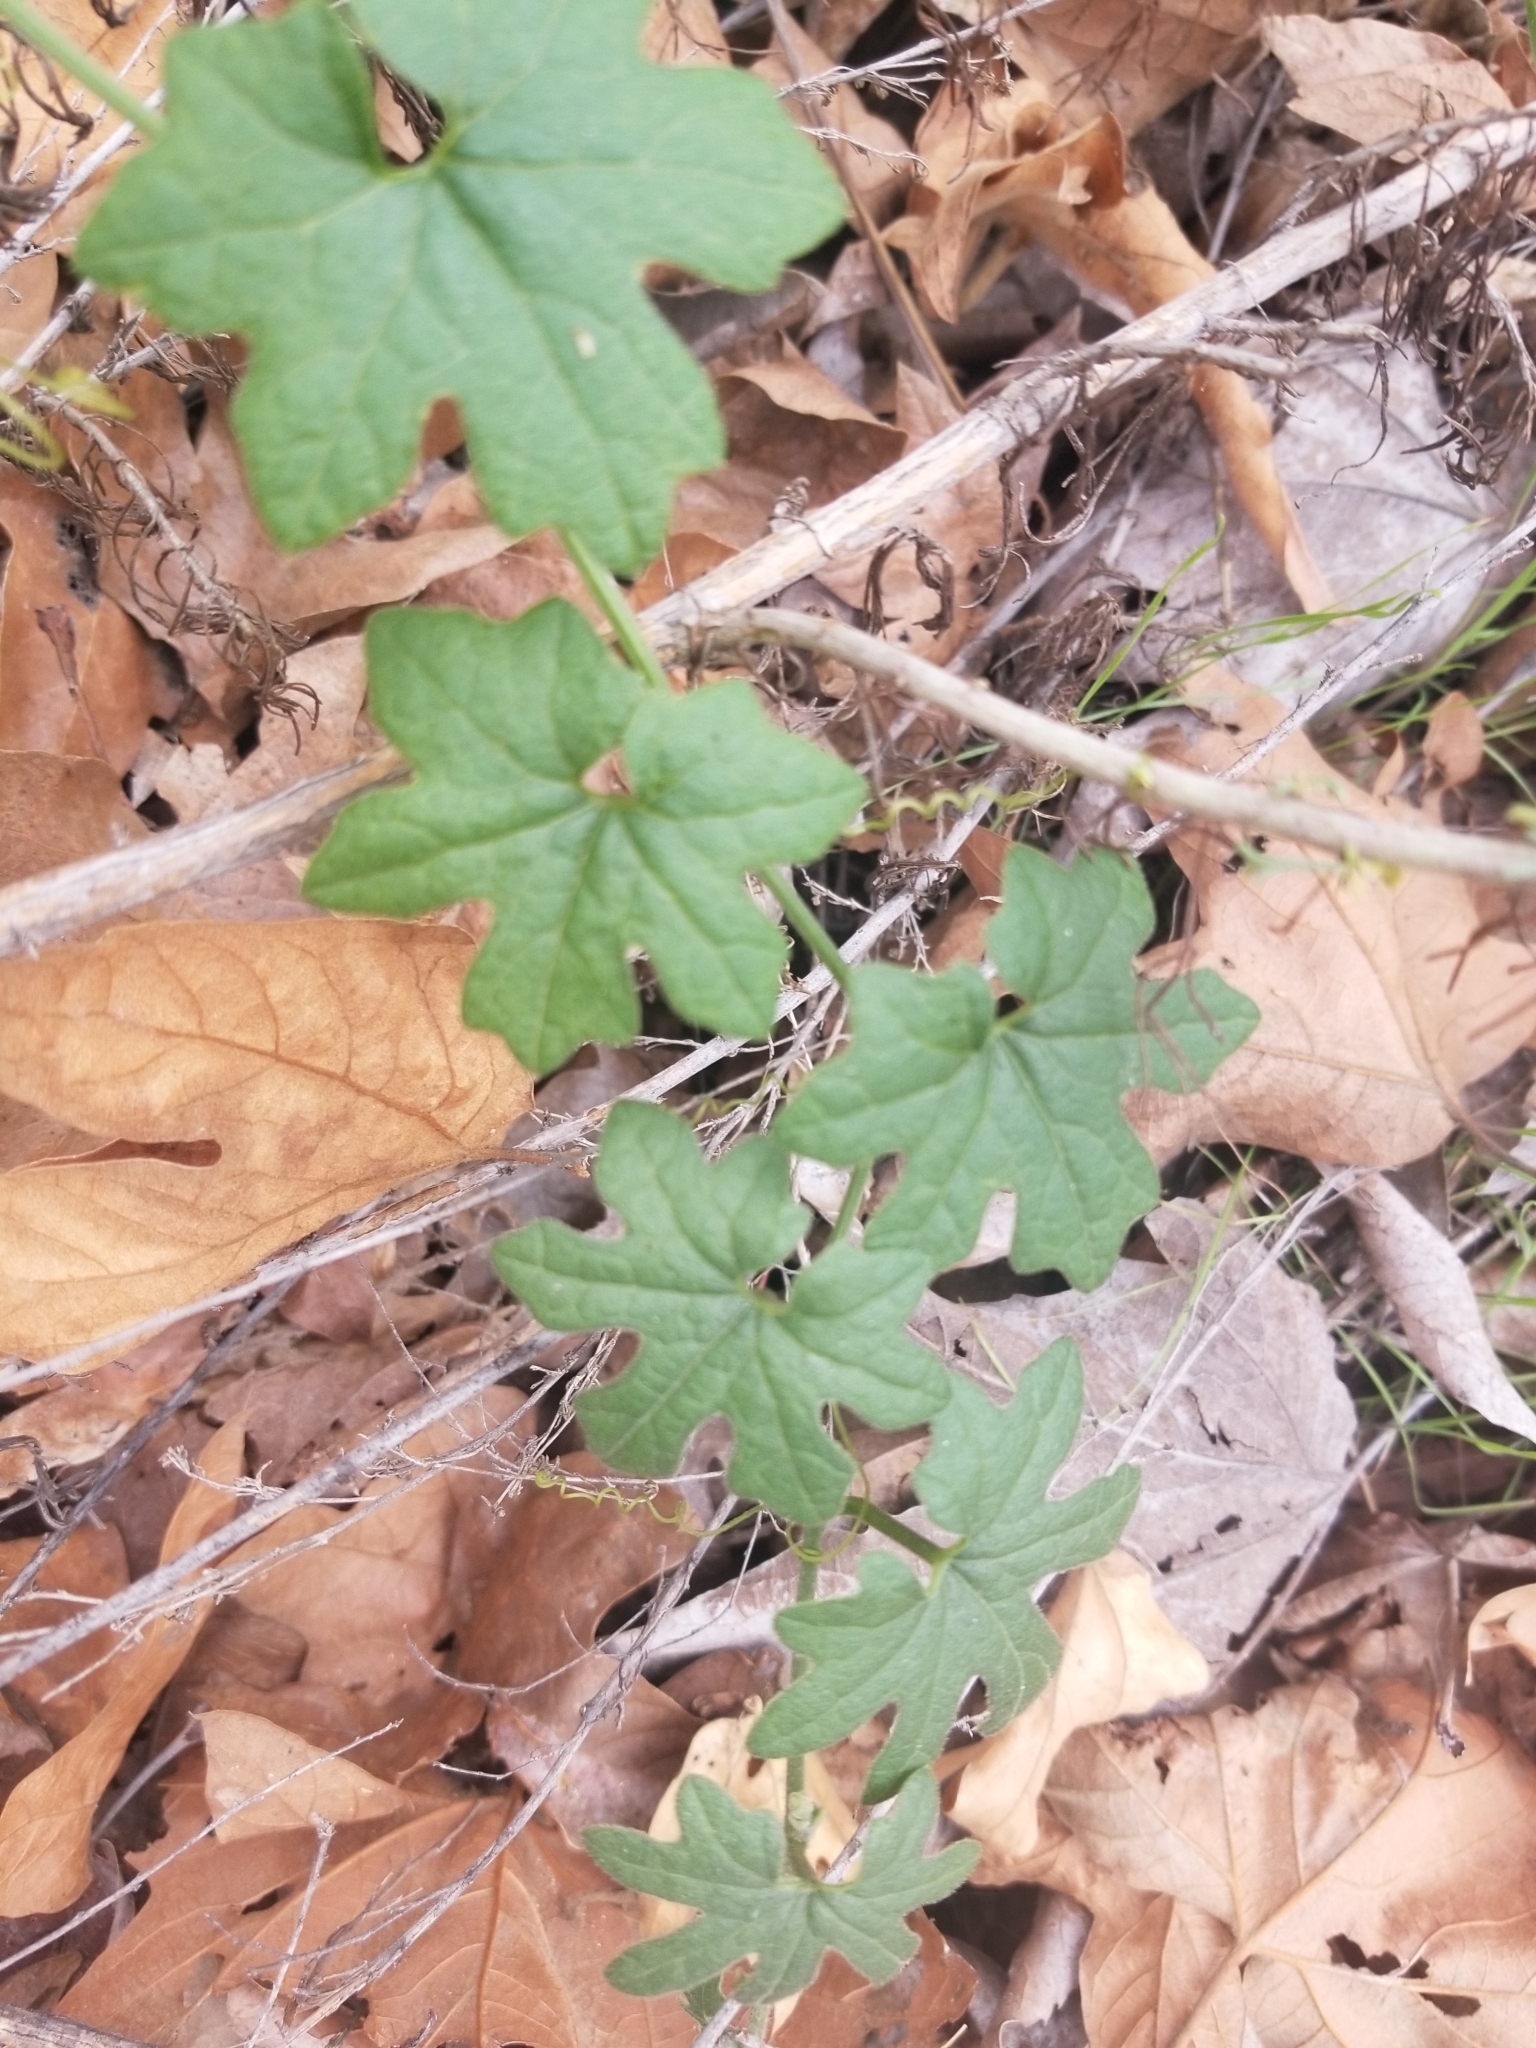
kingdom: Plantae
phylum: Tracheophyta
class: Magnoliopsida
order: Cucurbitales
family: Cucurbitaceae
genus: Marah
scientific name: Marah macrocarpa
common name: Cucamonga manroot
